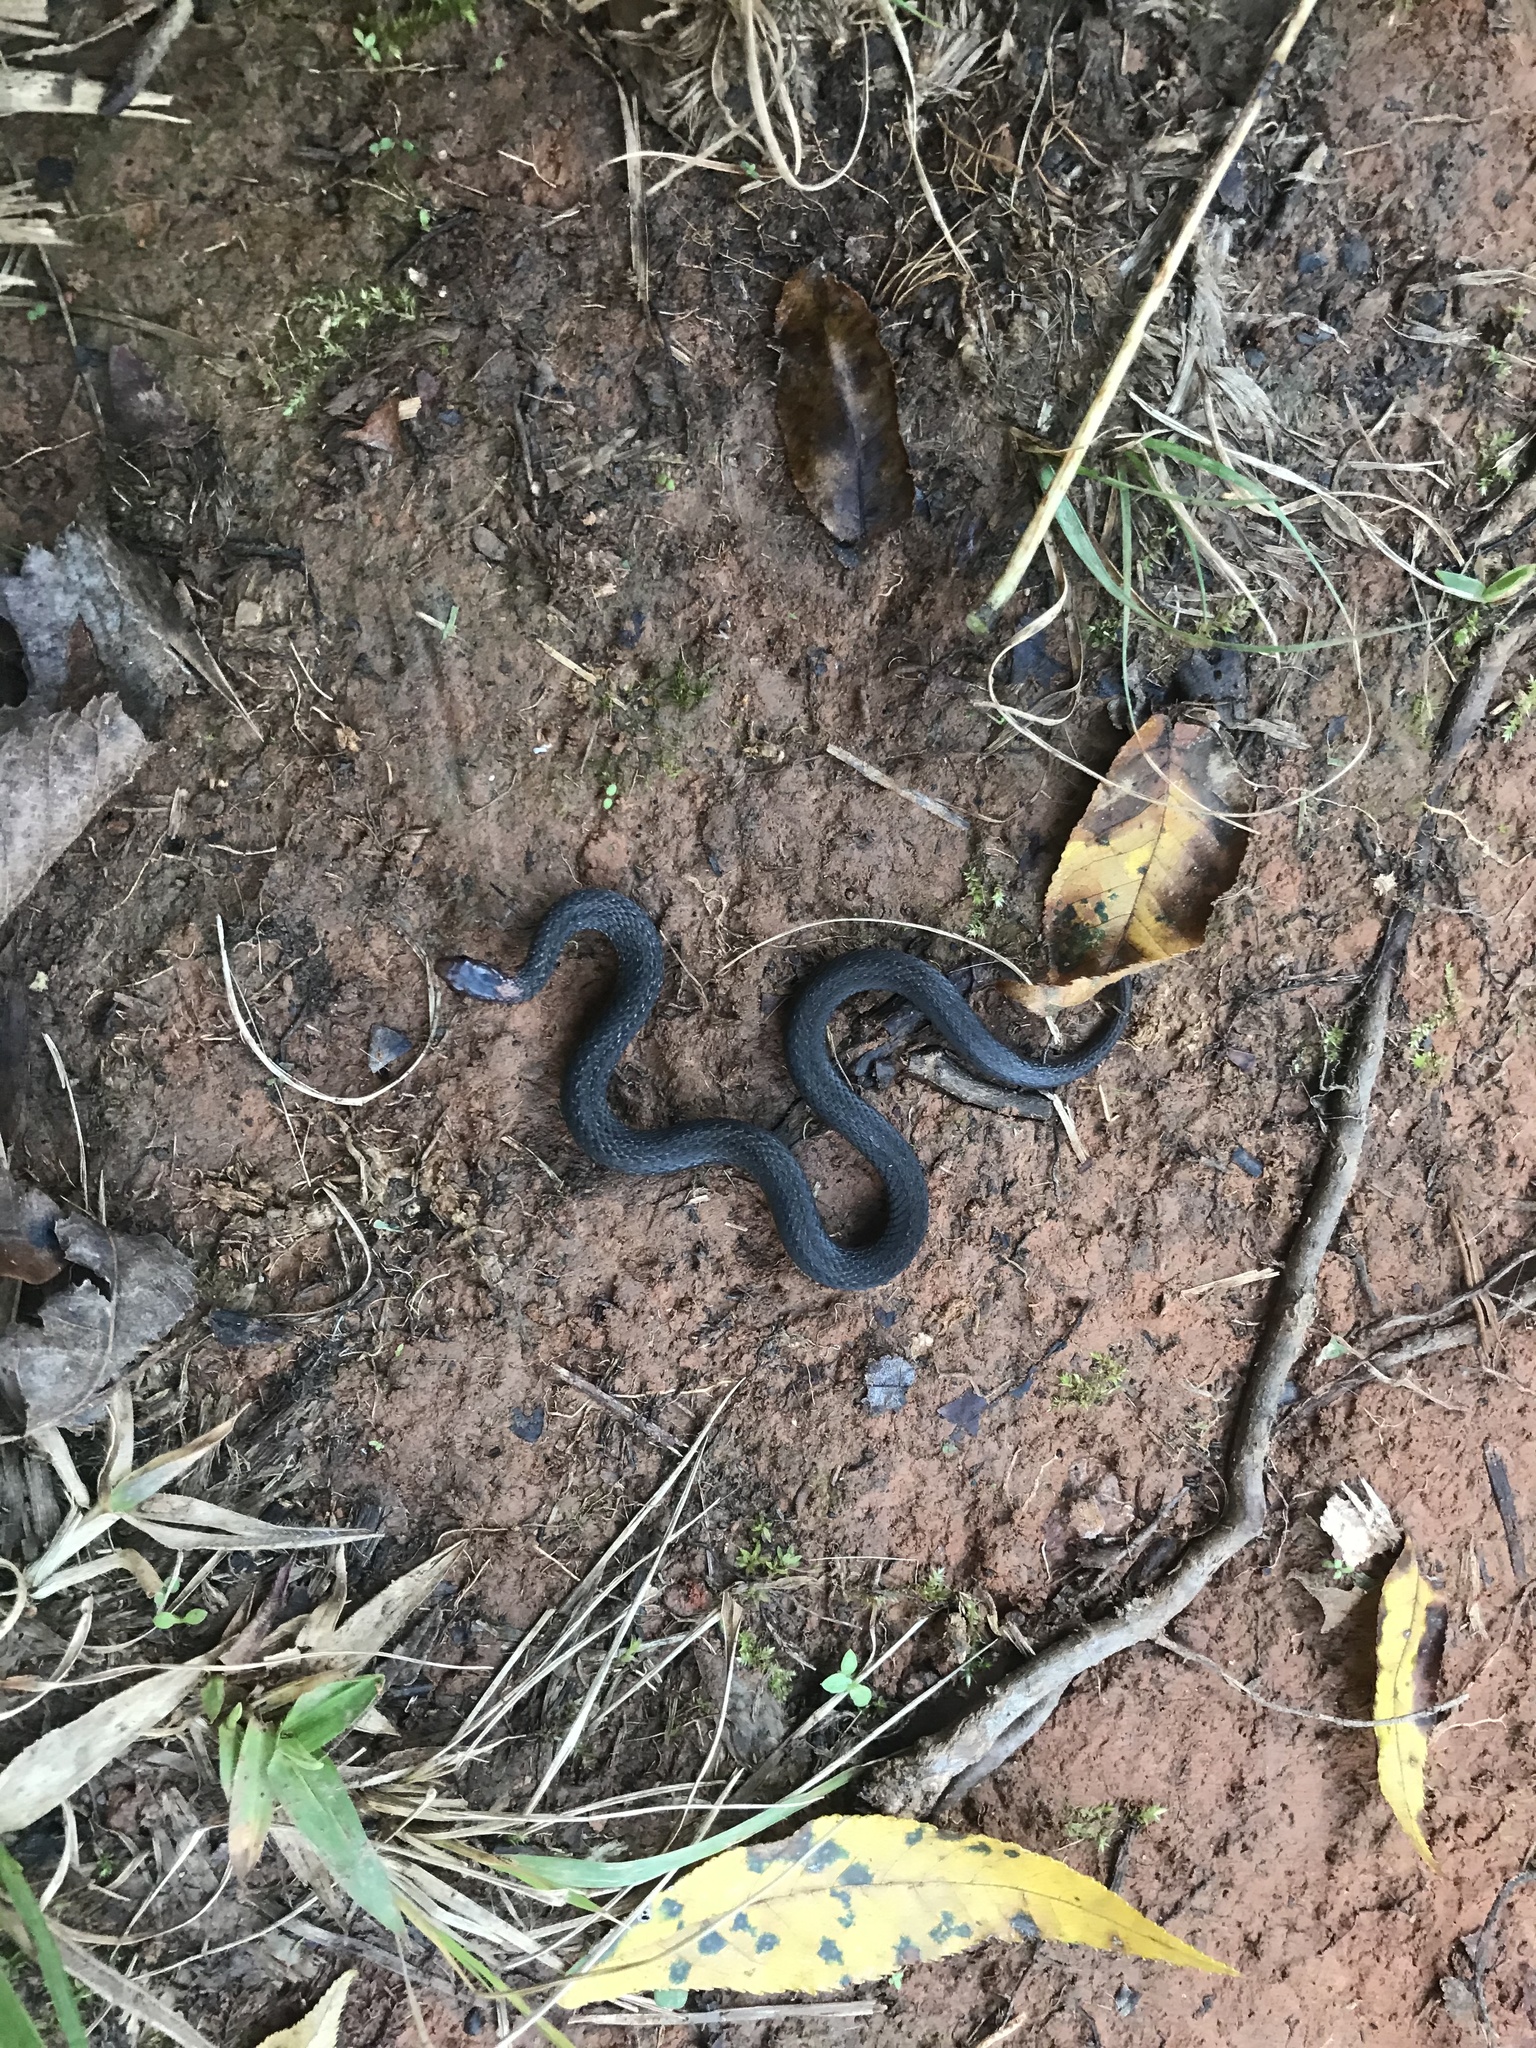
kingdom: Animalia
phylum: Chordata
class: Squamata
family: Colubridae
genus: Storeria
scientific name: Storeria occipitomaculata
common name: Redbelly snake
